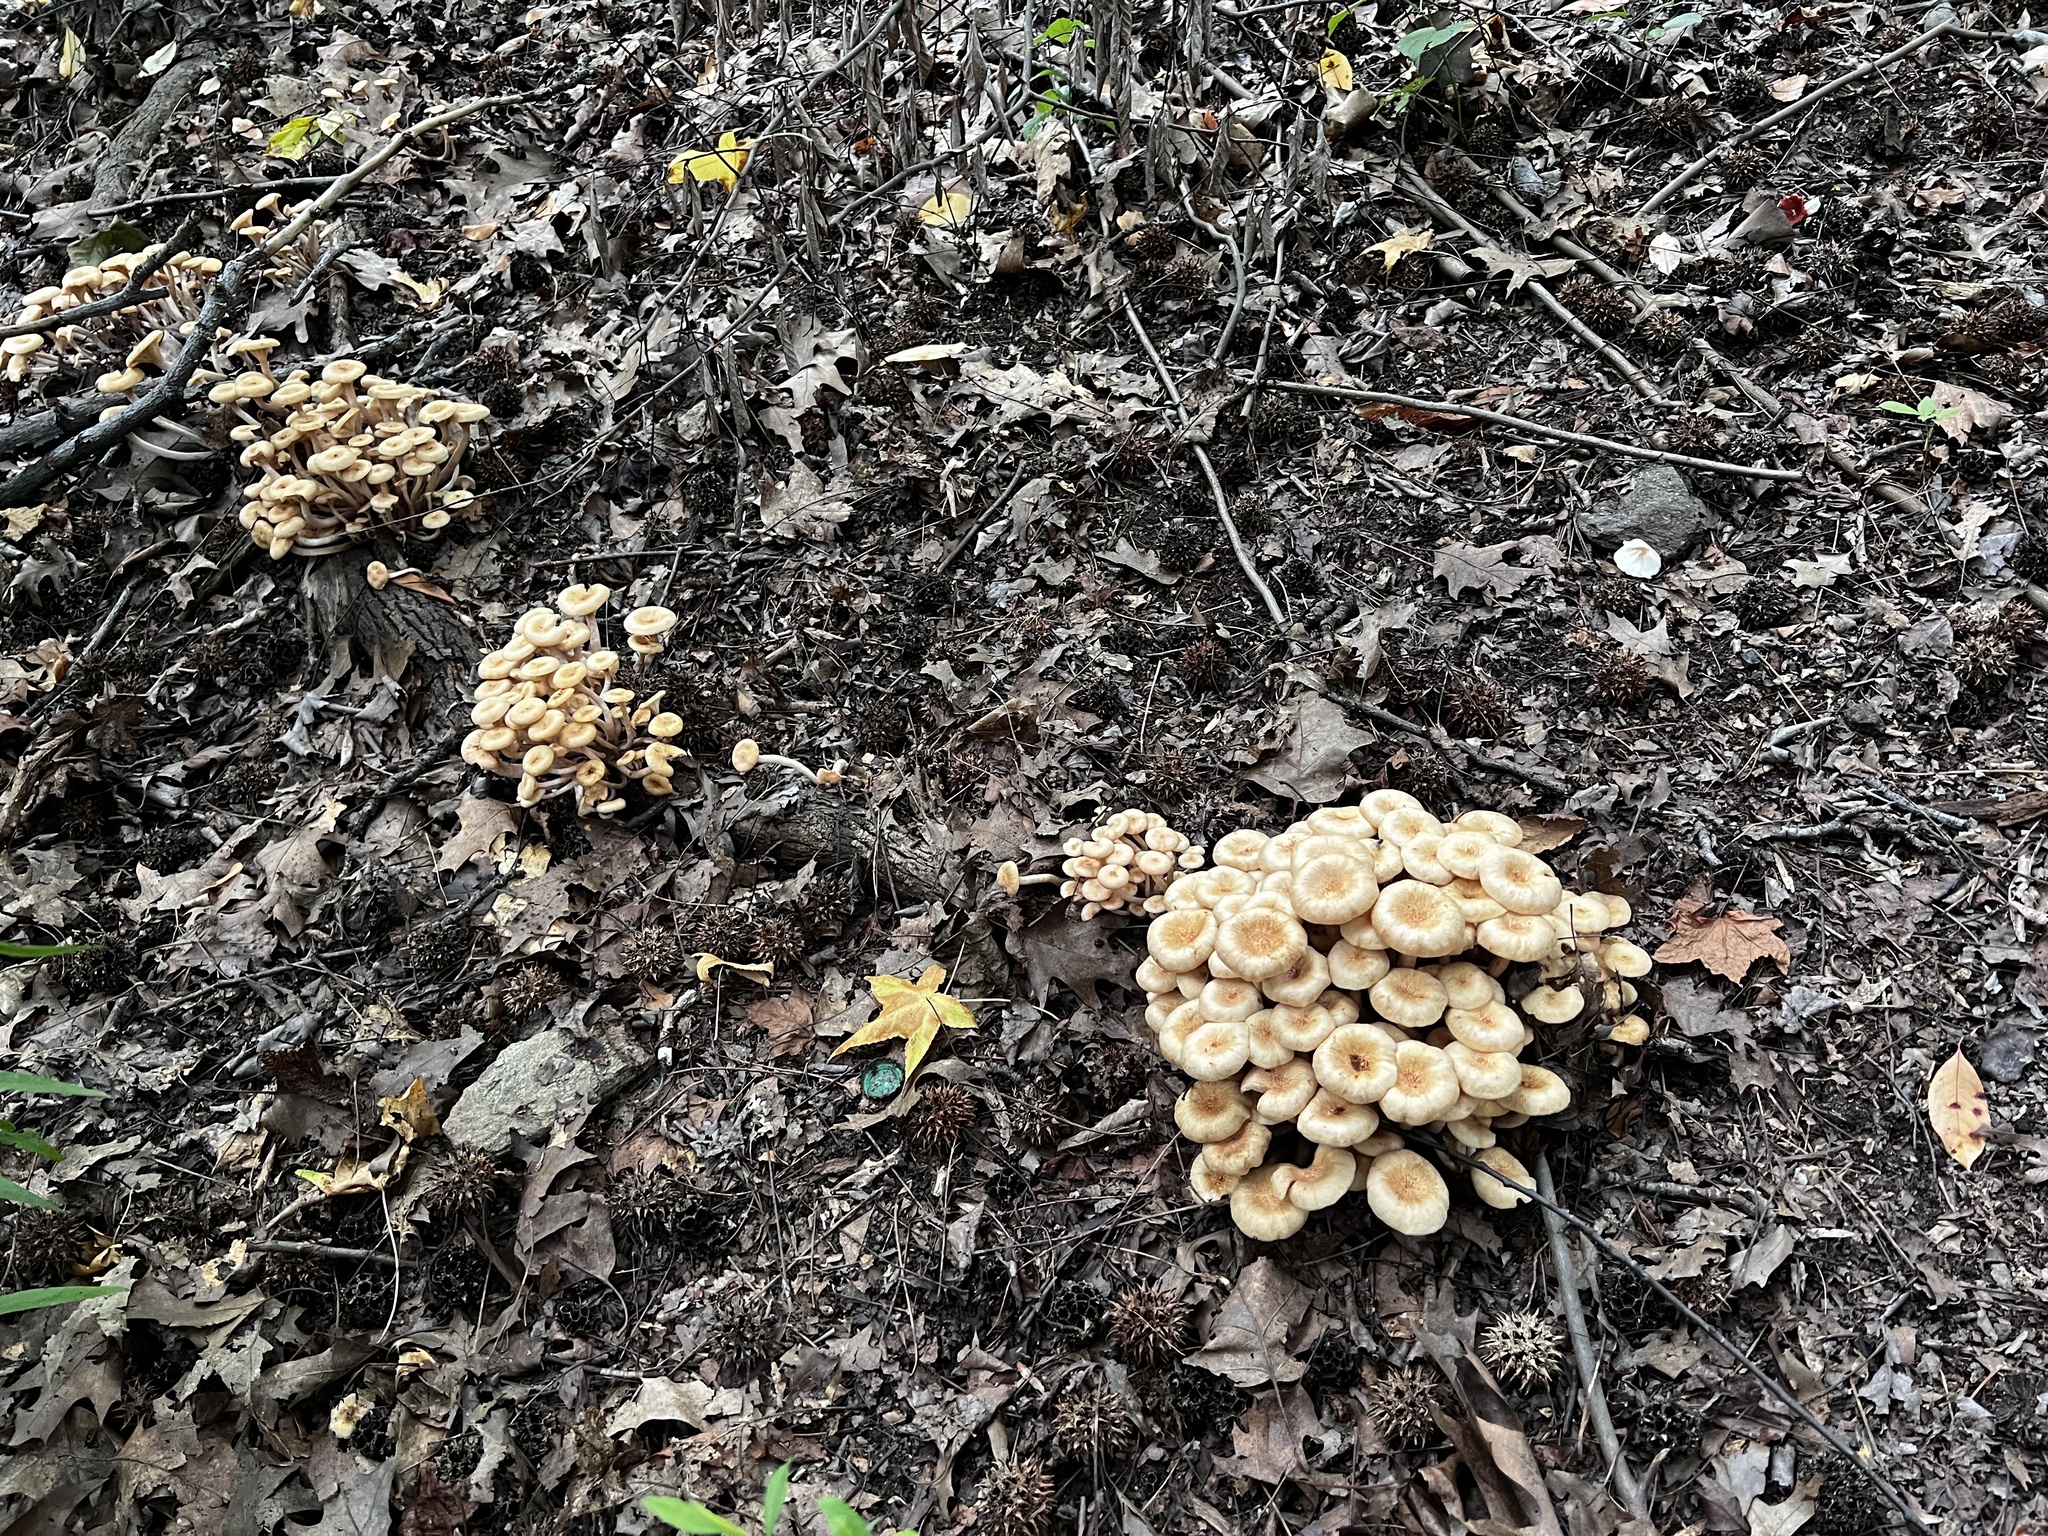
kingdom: Fungi
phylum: Basidiomycota
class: Agaricomycetes
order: Agaricales
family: Physalacriaceae
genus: Desarmillaria
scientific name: Desarmillaria caespitosa
